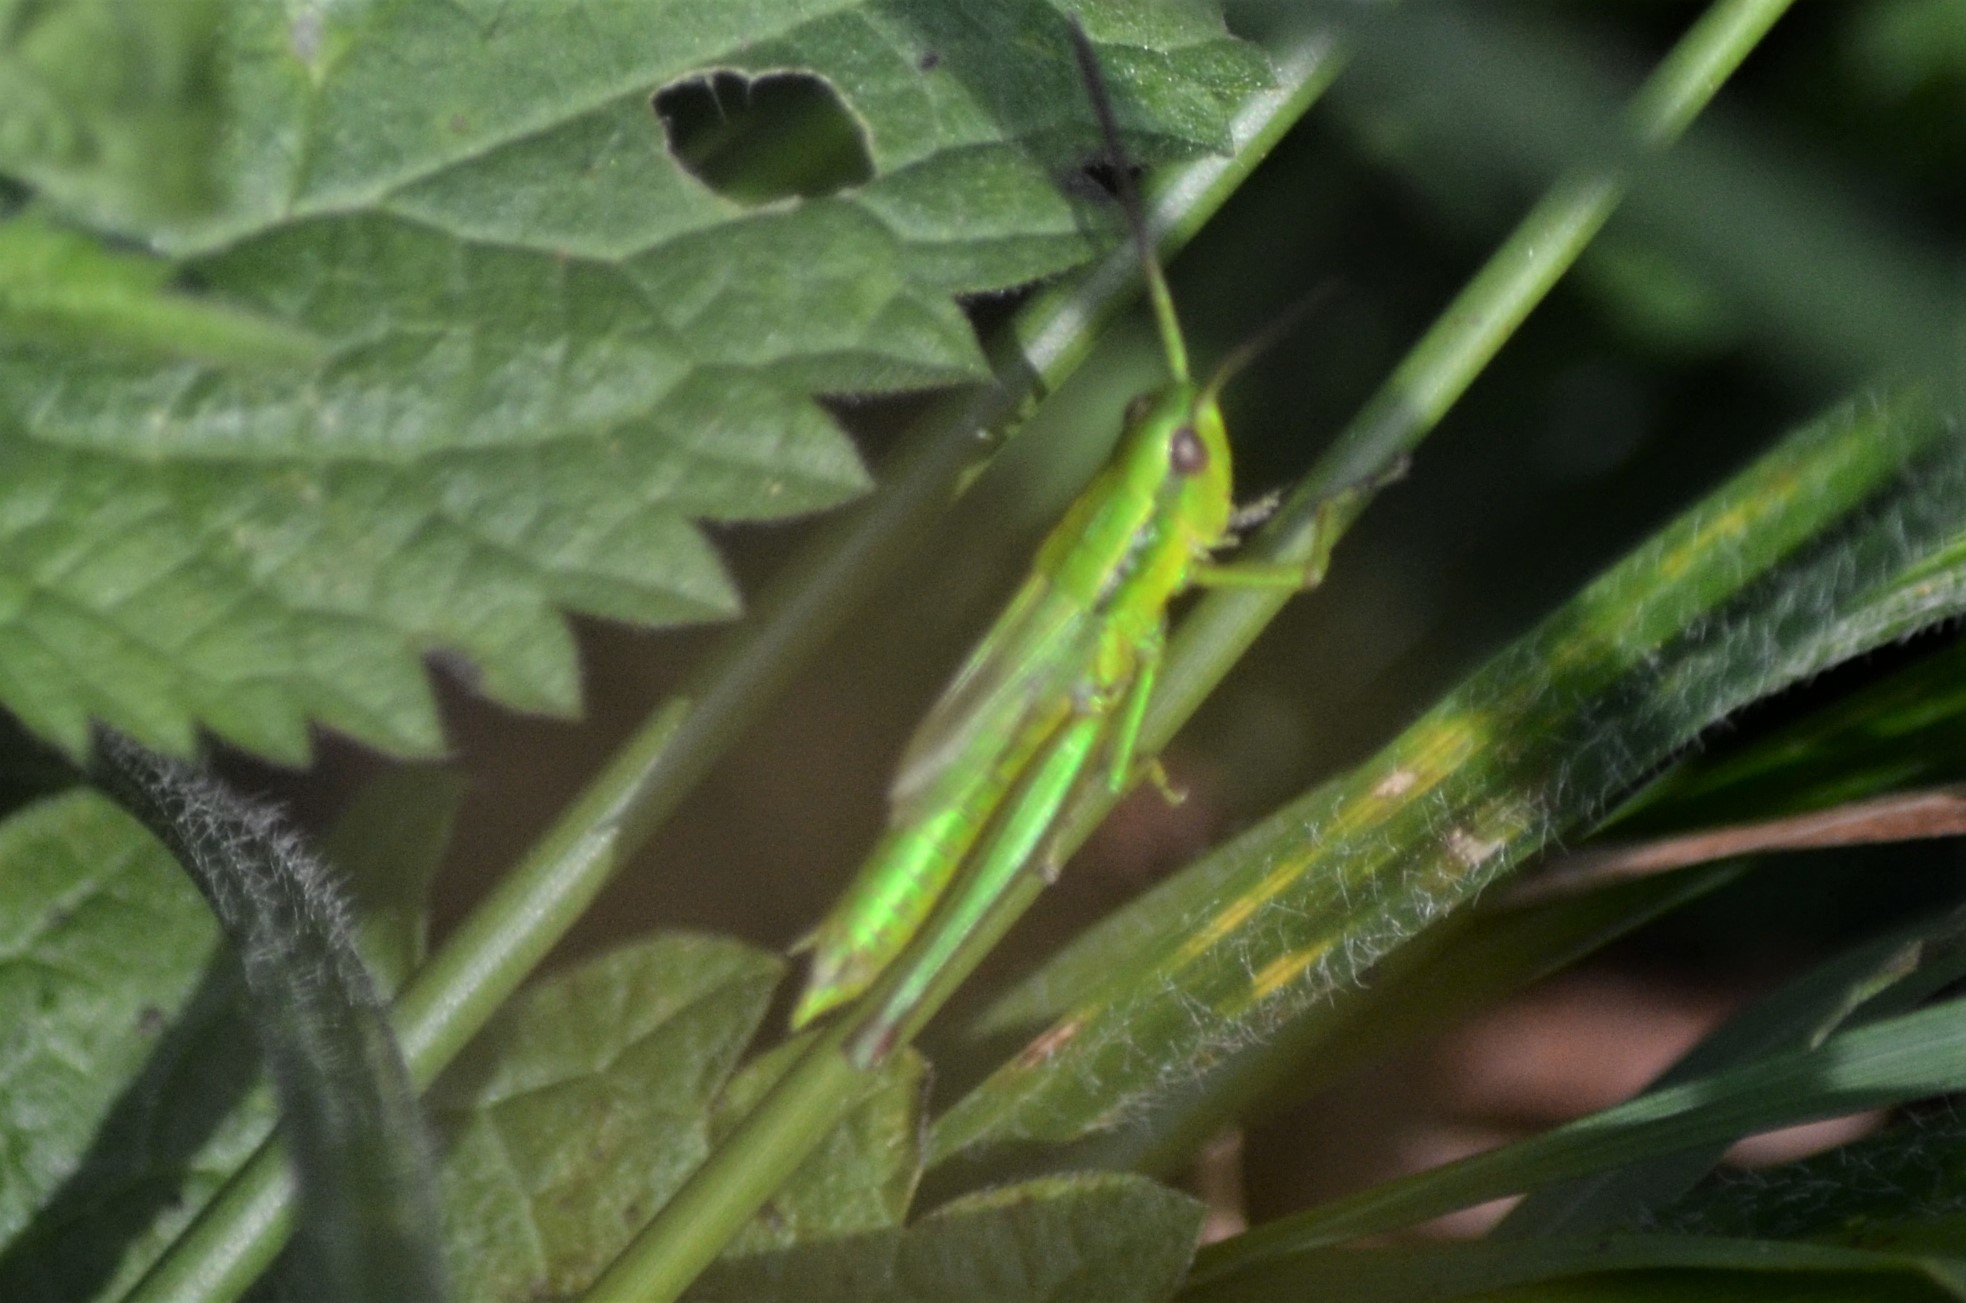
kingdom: Animalia
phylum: Arthropoda
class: Insecta
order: Orthoptera
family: Acrididae
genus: Euthystira
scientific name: Euthystira brachyptera
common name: Small gold grasshopper
